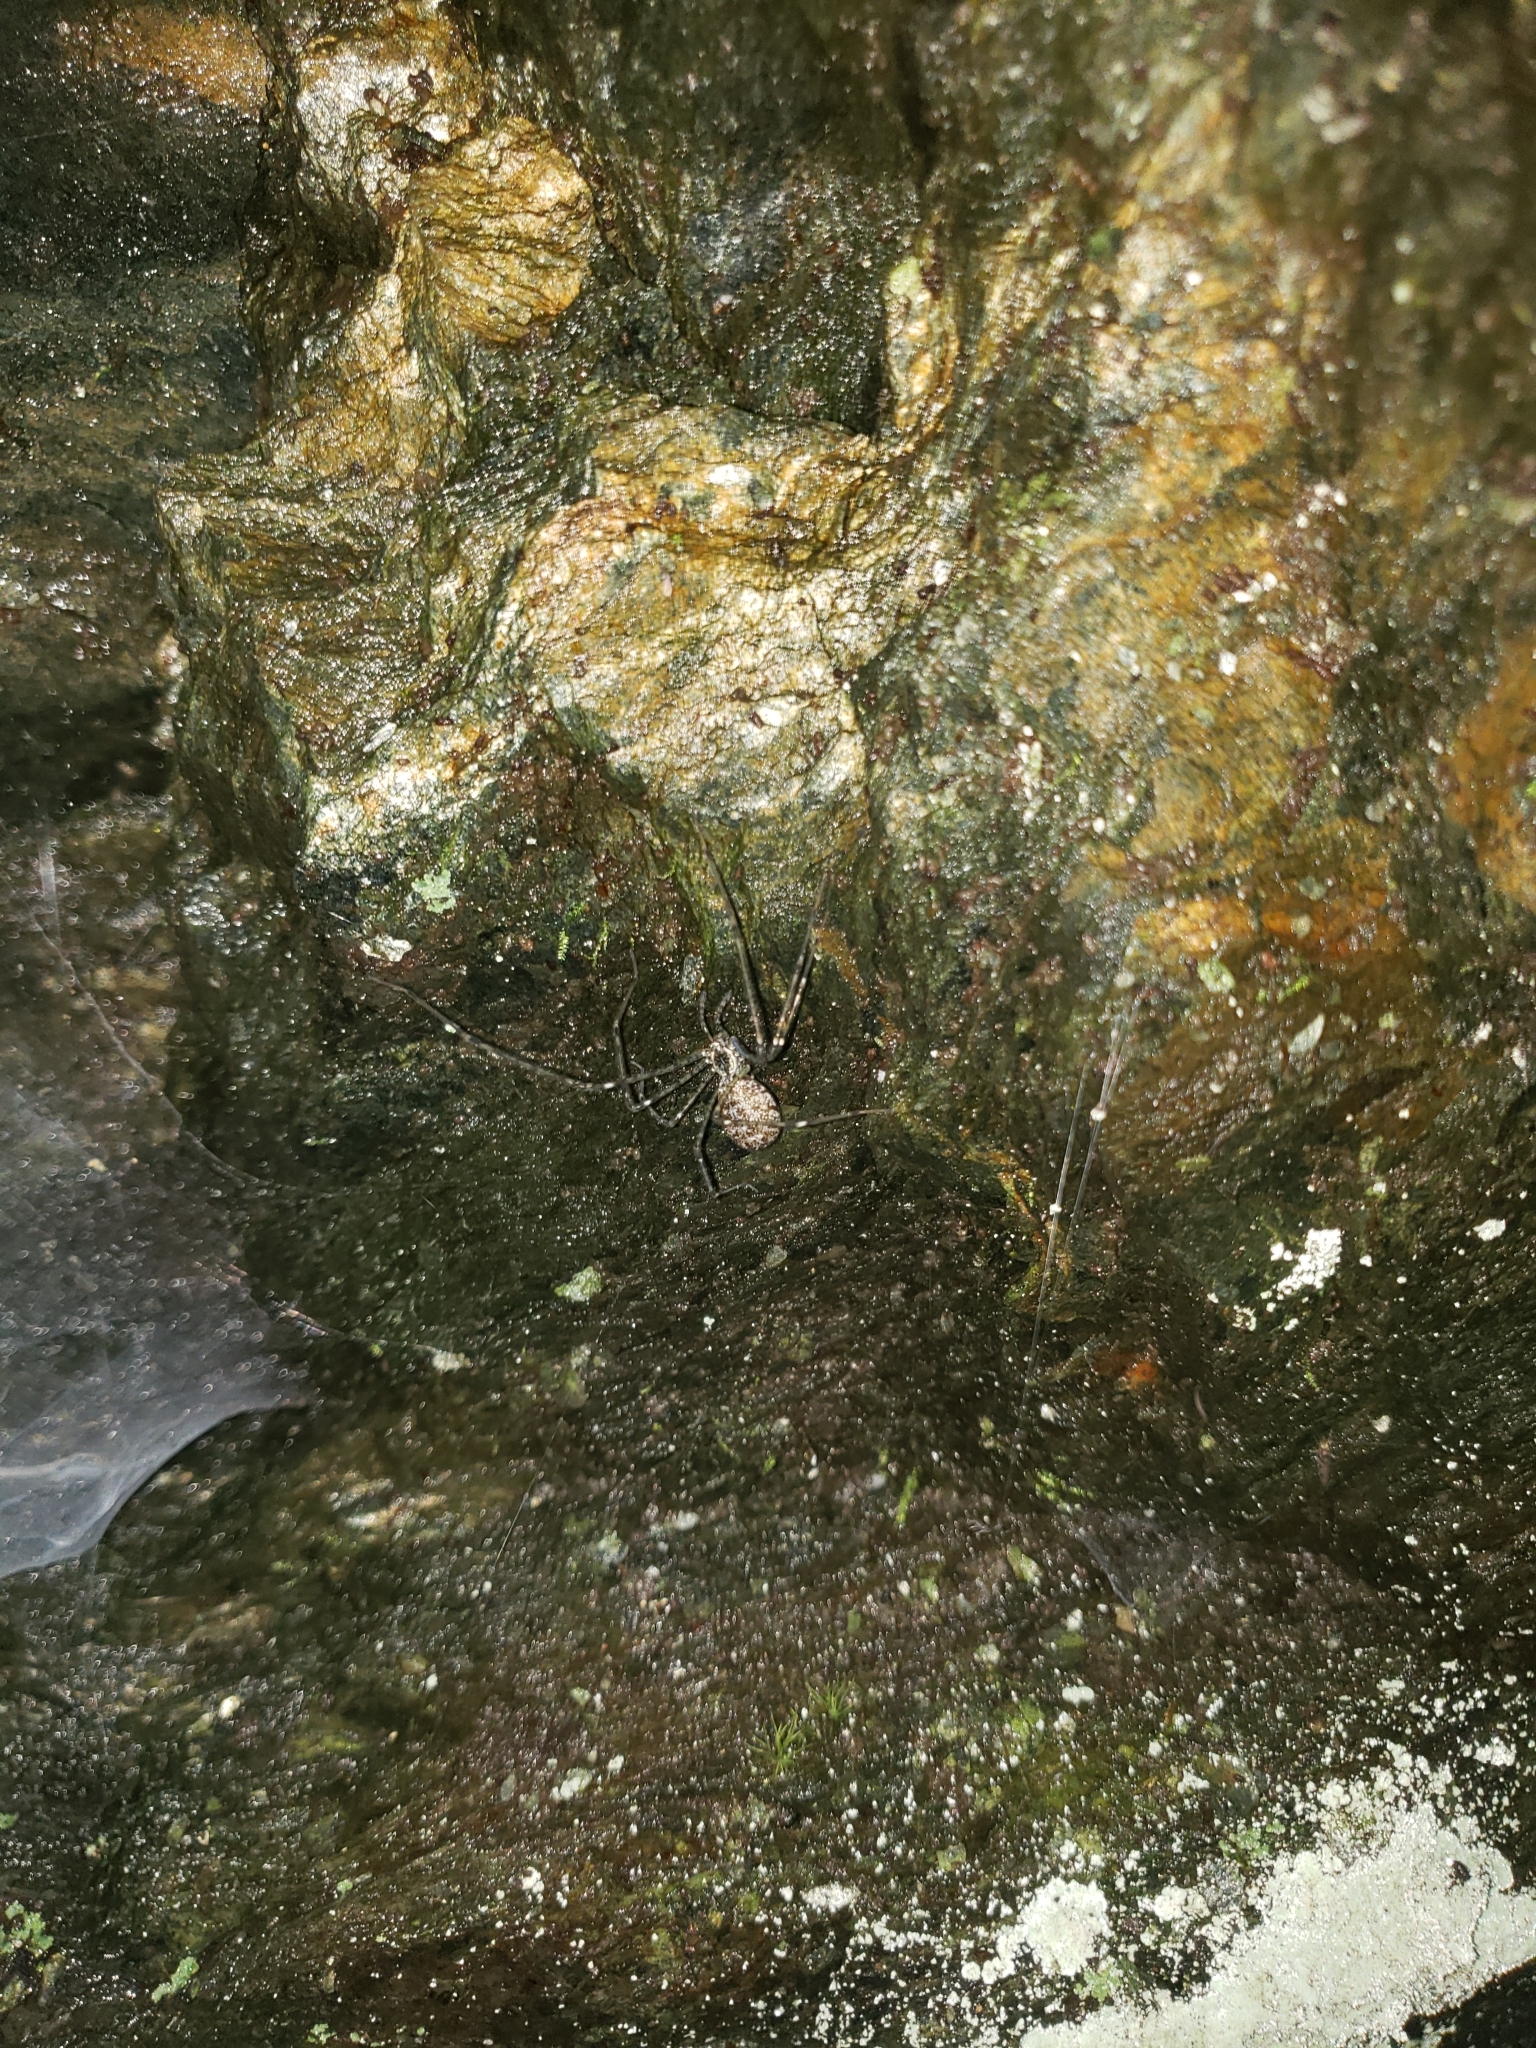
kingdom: Animalia
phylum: Arthropoda
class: Arachnida
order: Araneae
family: Hypochilidae
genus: Hypochilus
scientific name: Hypochilus pococki
